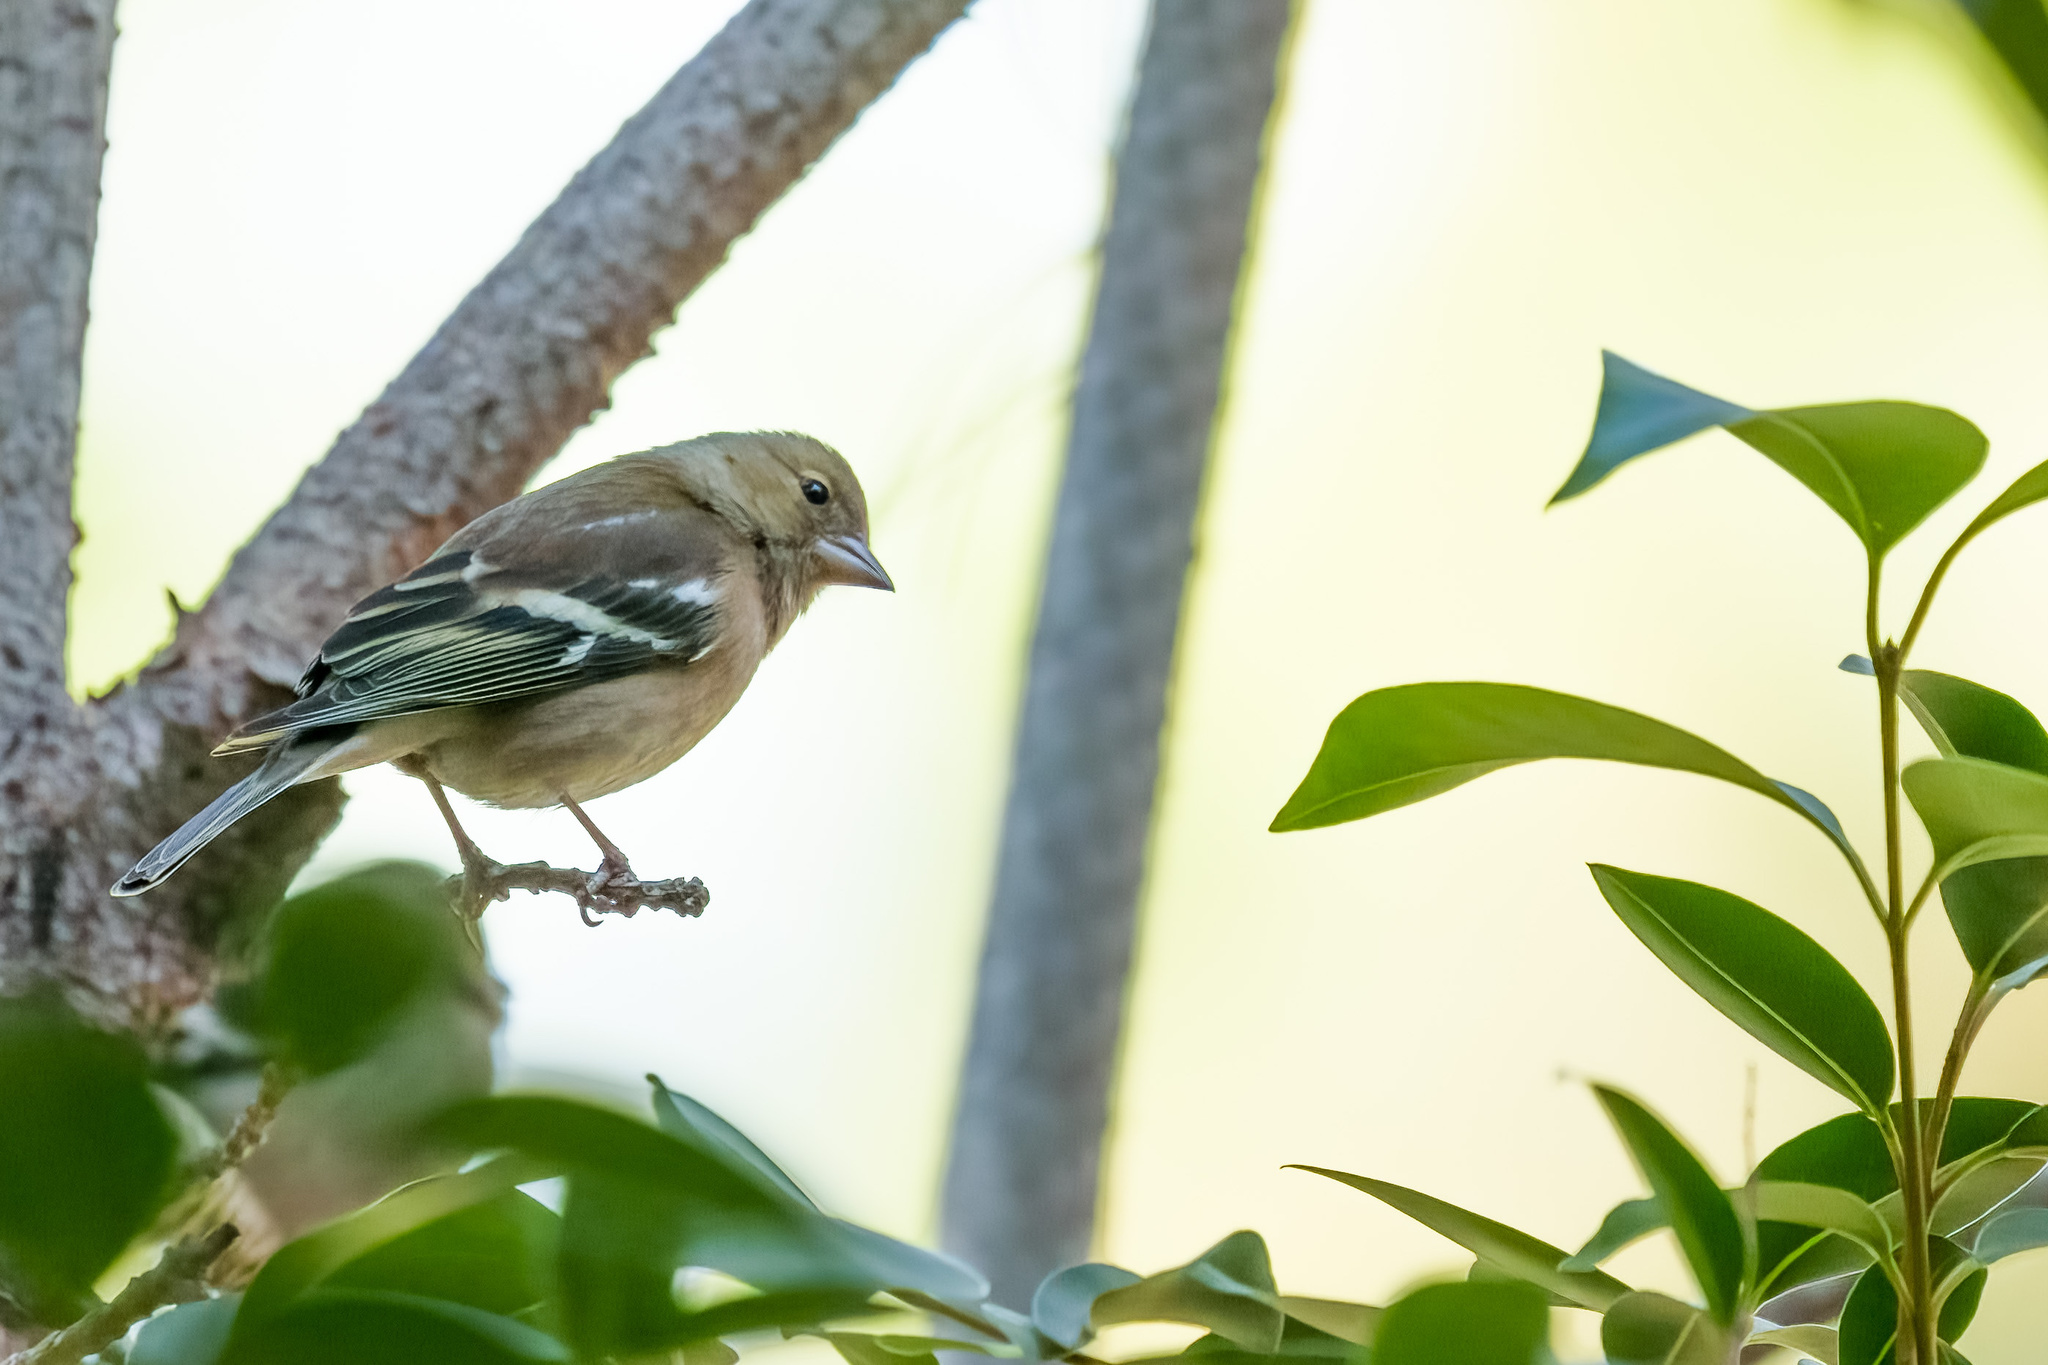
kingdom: Animalia
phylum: Chordata
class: Aves
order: Passeriformes
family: Fringillidae
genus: Fringilla
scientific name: Fringilla coelebs
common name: Common chaffinch
